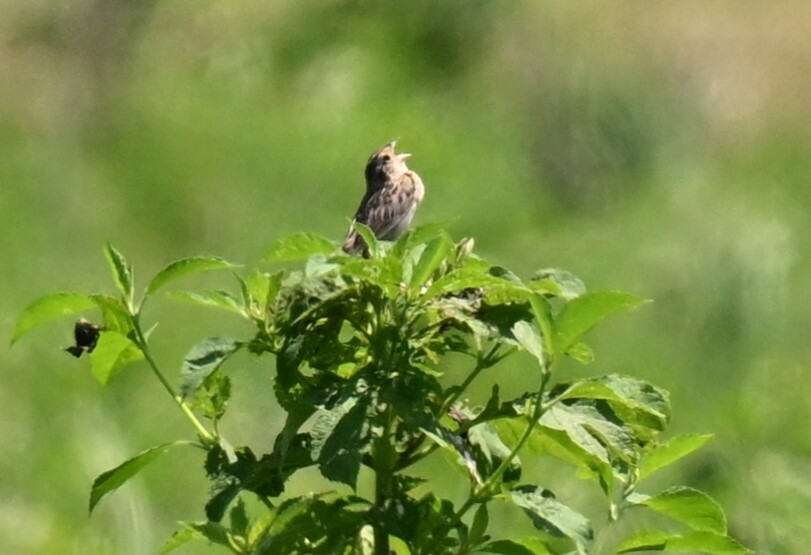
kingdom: Animalia
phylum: Chordata
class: Aves
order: Passeriformes
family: Passerellidae
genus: Ammodramus
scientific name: Ammodramus savannarum
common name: Grasshopper sparrow
